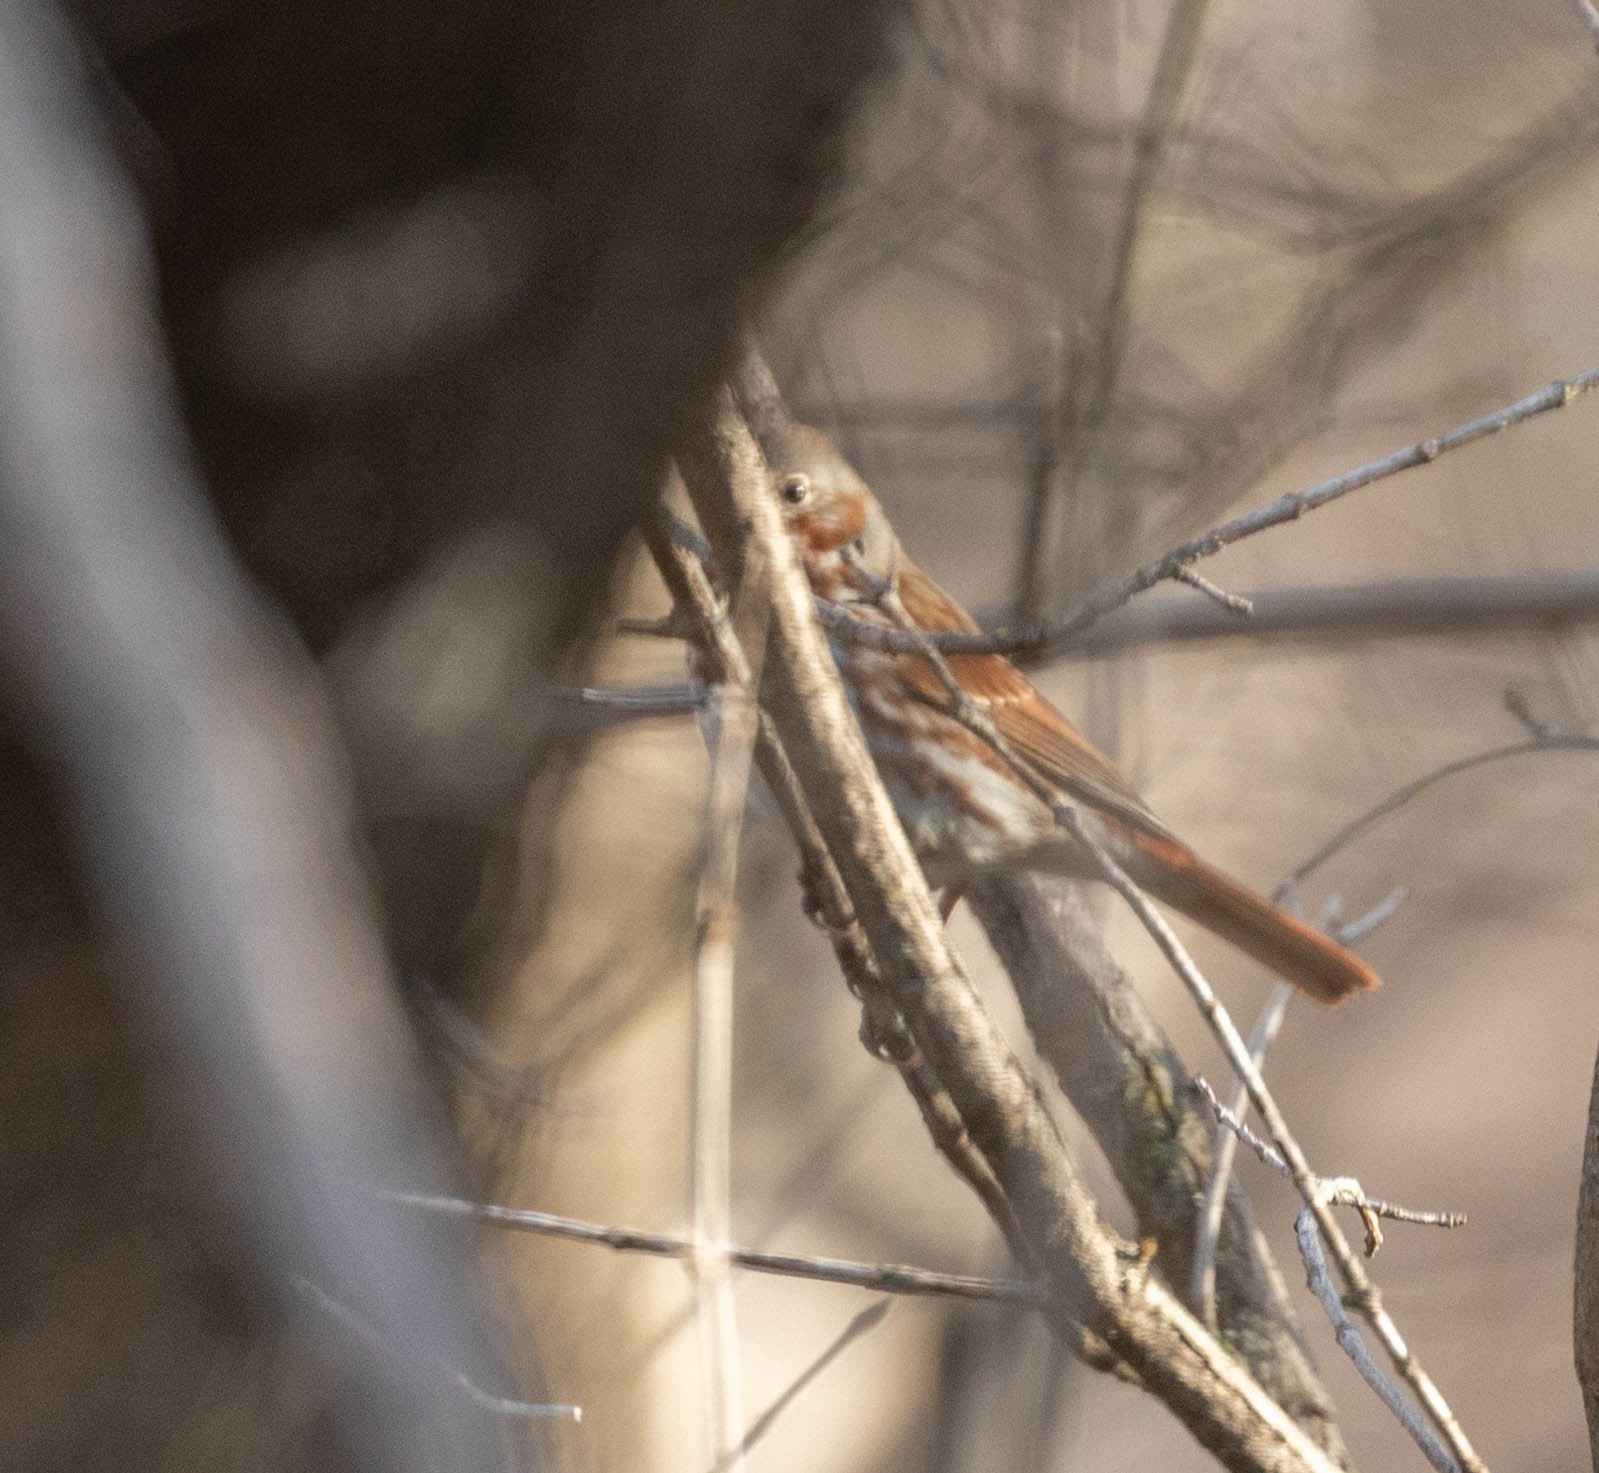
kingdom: Animalia
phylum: Chordata
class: Aves
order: Passeriformes
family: Passerellidae
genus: Passerella
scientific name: Passerella iliaca
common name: Fox sparrow
